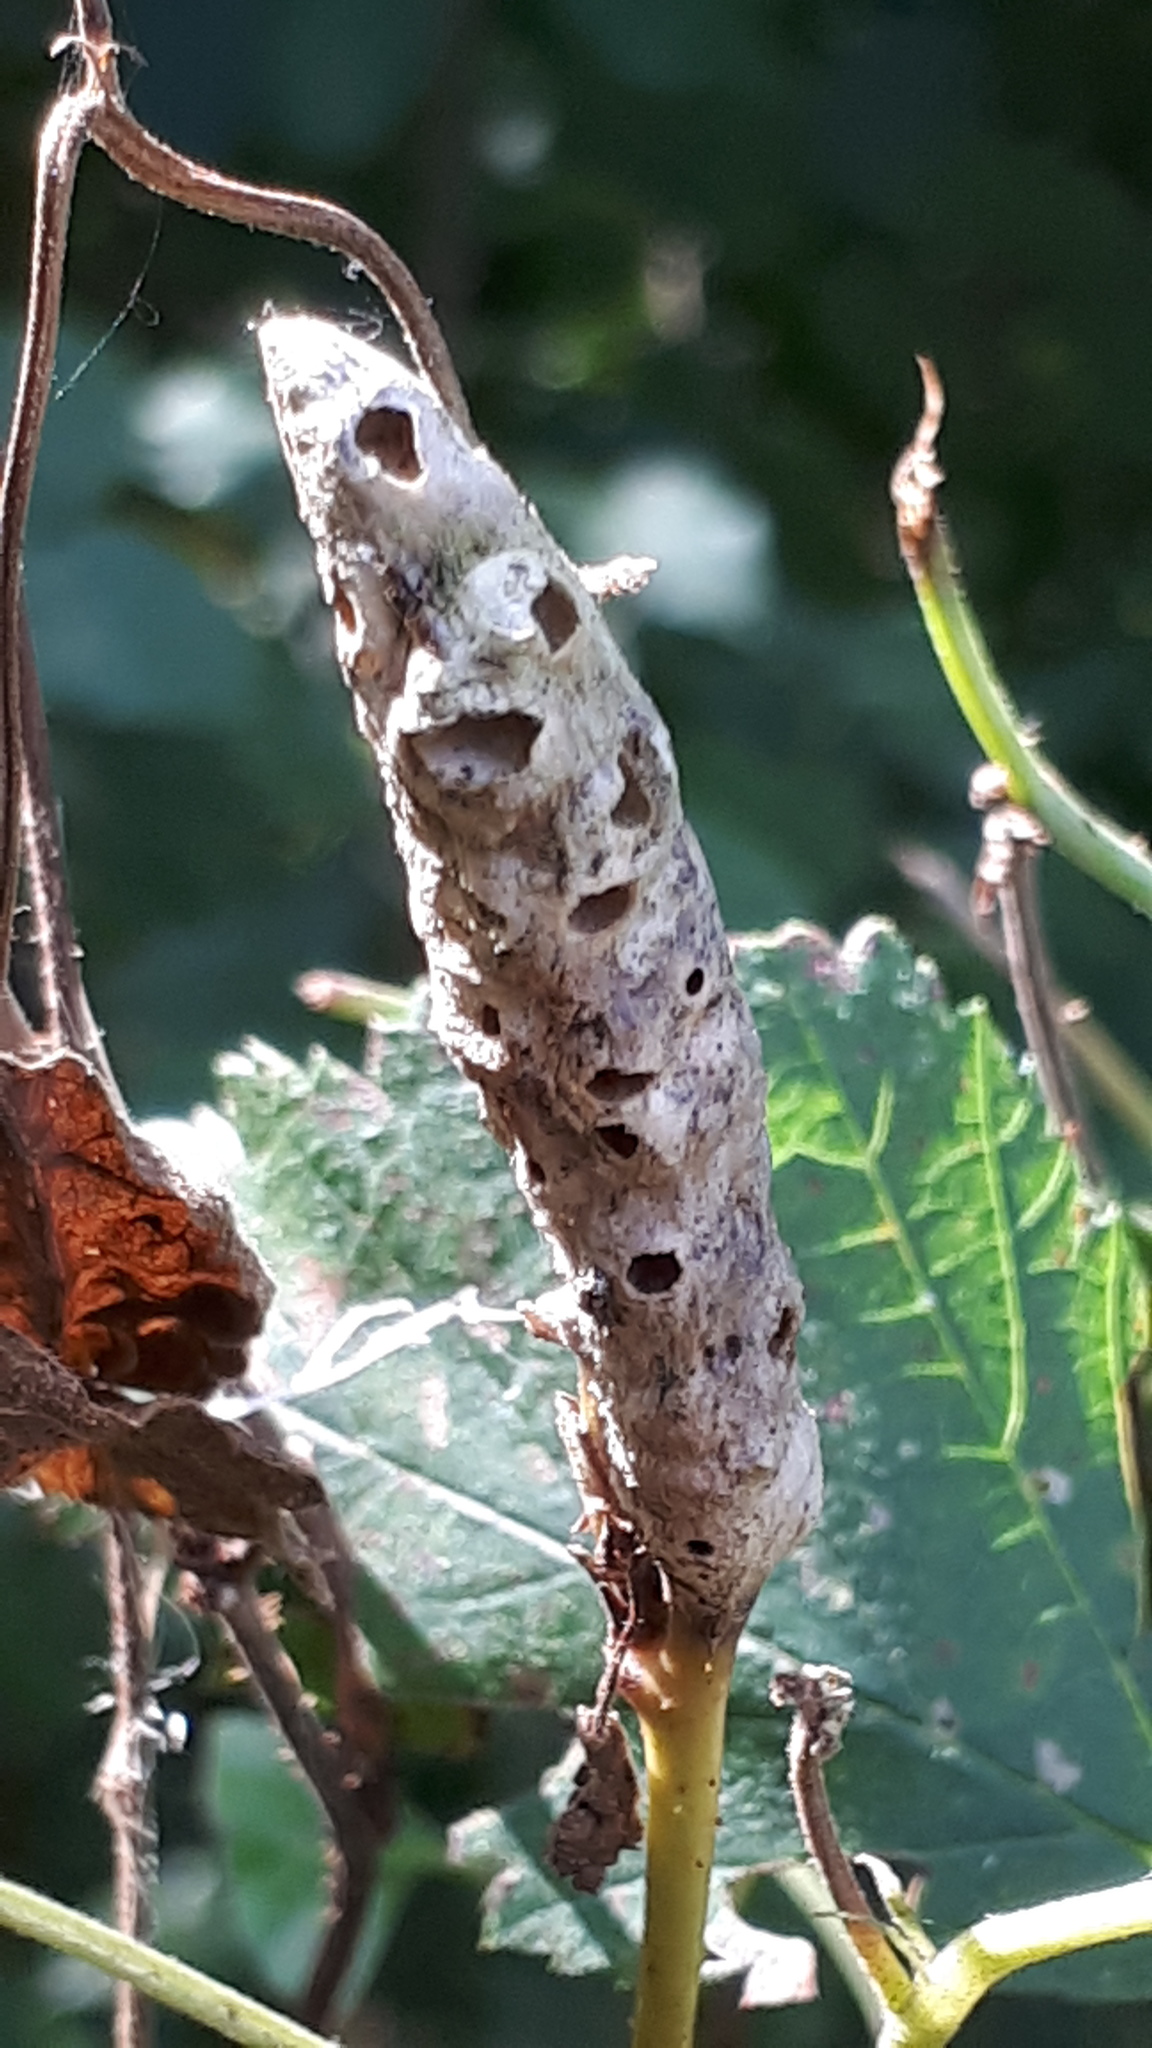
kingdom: Animalia
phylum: Arthropoda
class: Insecta
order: Hymenoptera
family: Cynipidae
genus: Diastrophus
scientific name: Diastrophus rubi
